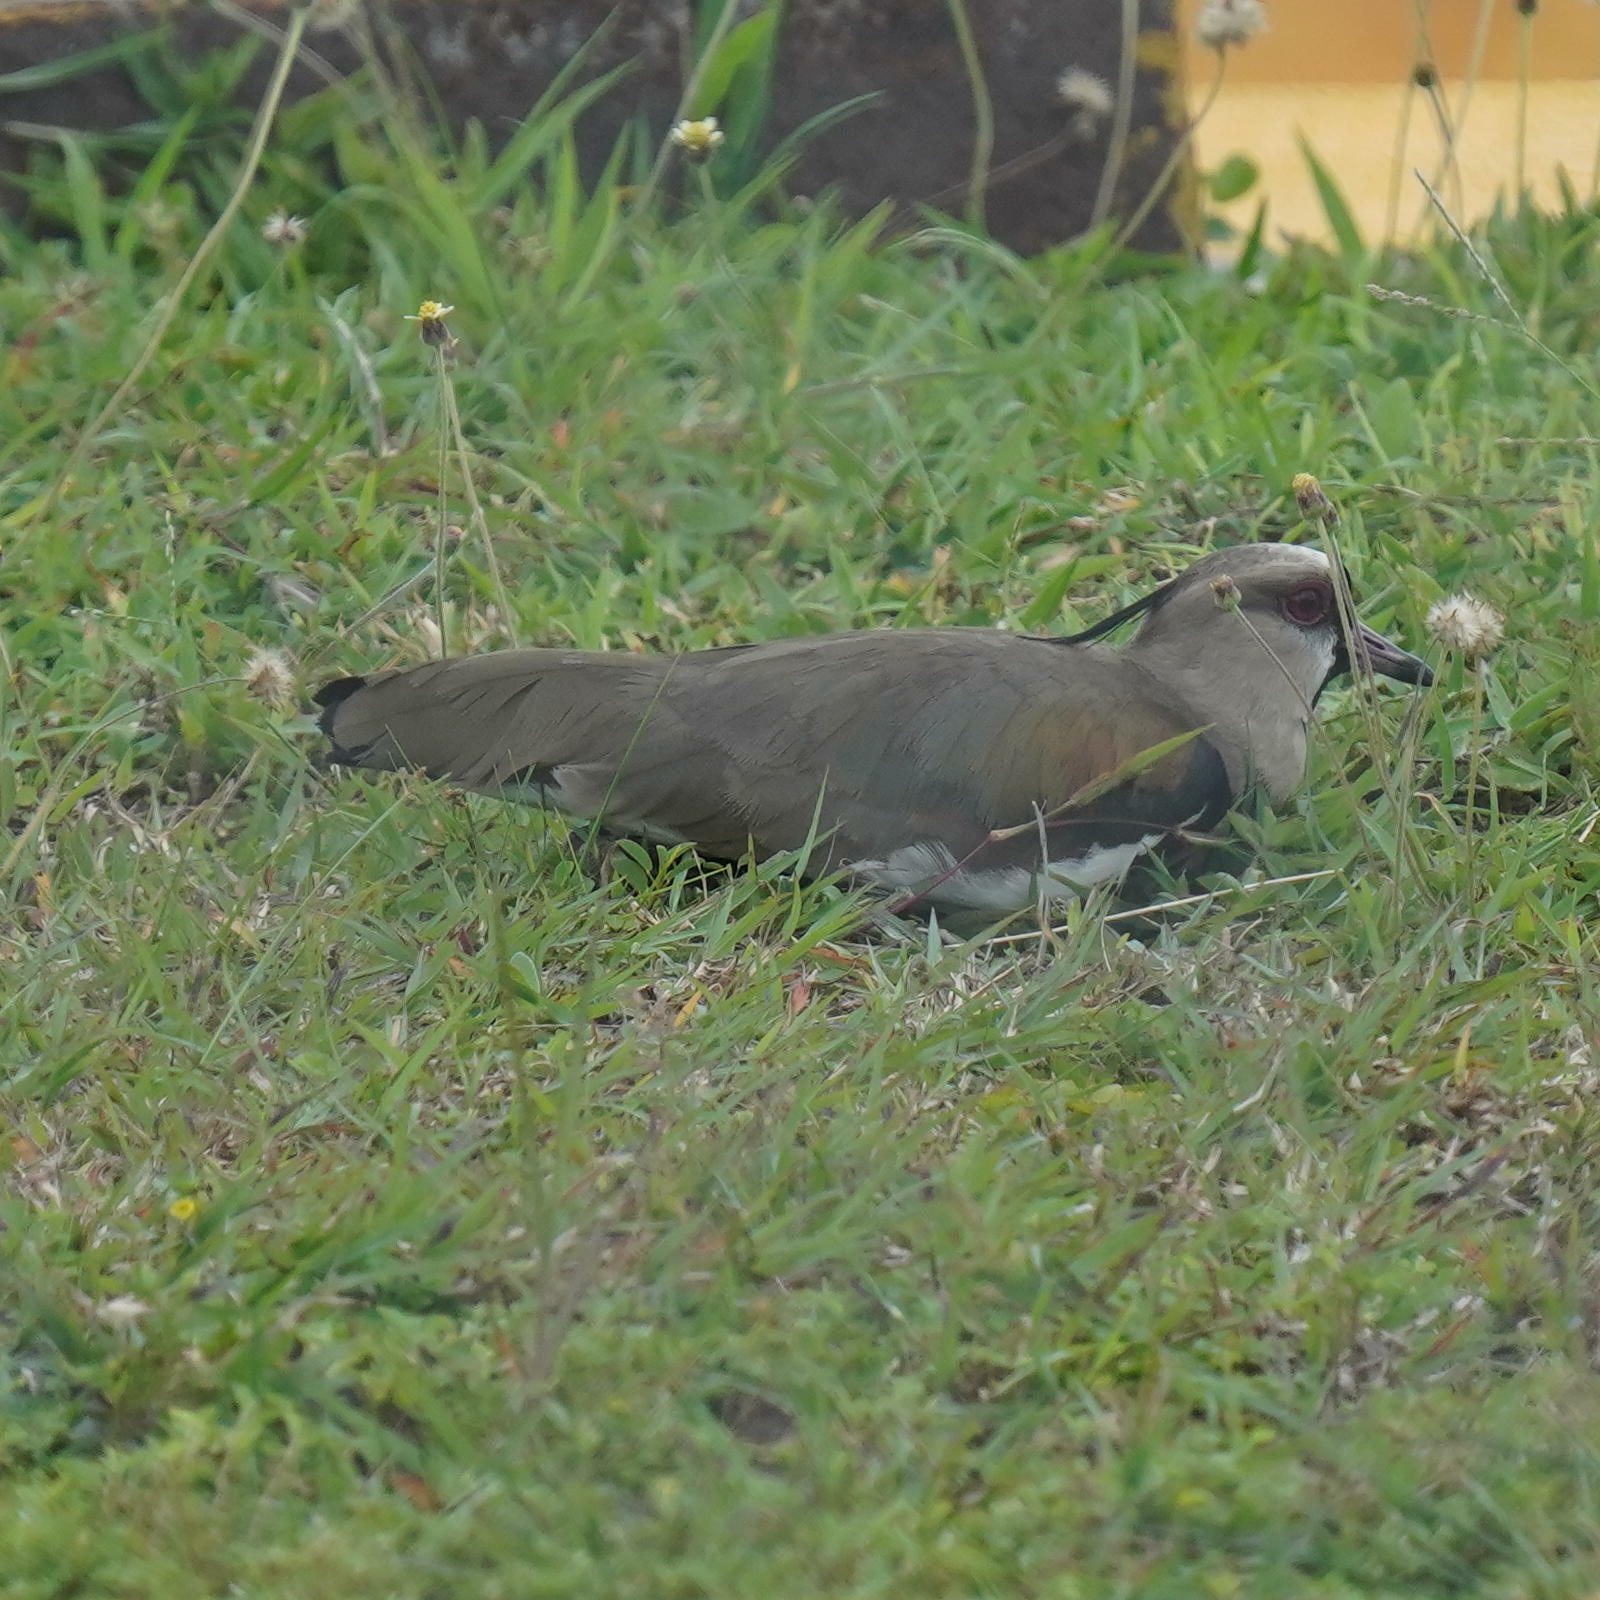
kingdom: Animalia
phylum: Chordata
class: Aves
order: Charadriiformes
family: Charadriidae
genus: Vanellus
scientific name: Vanellus chilensis
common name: Southern lapwing
